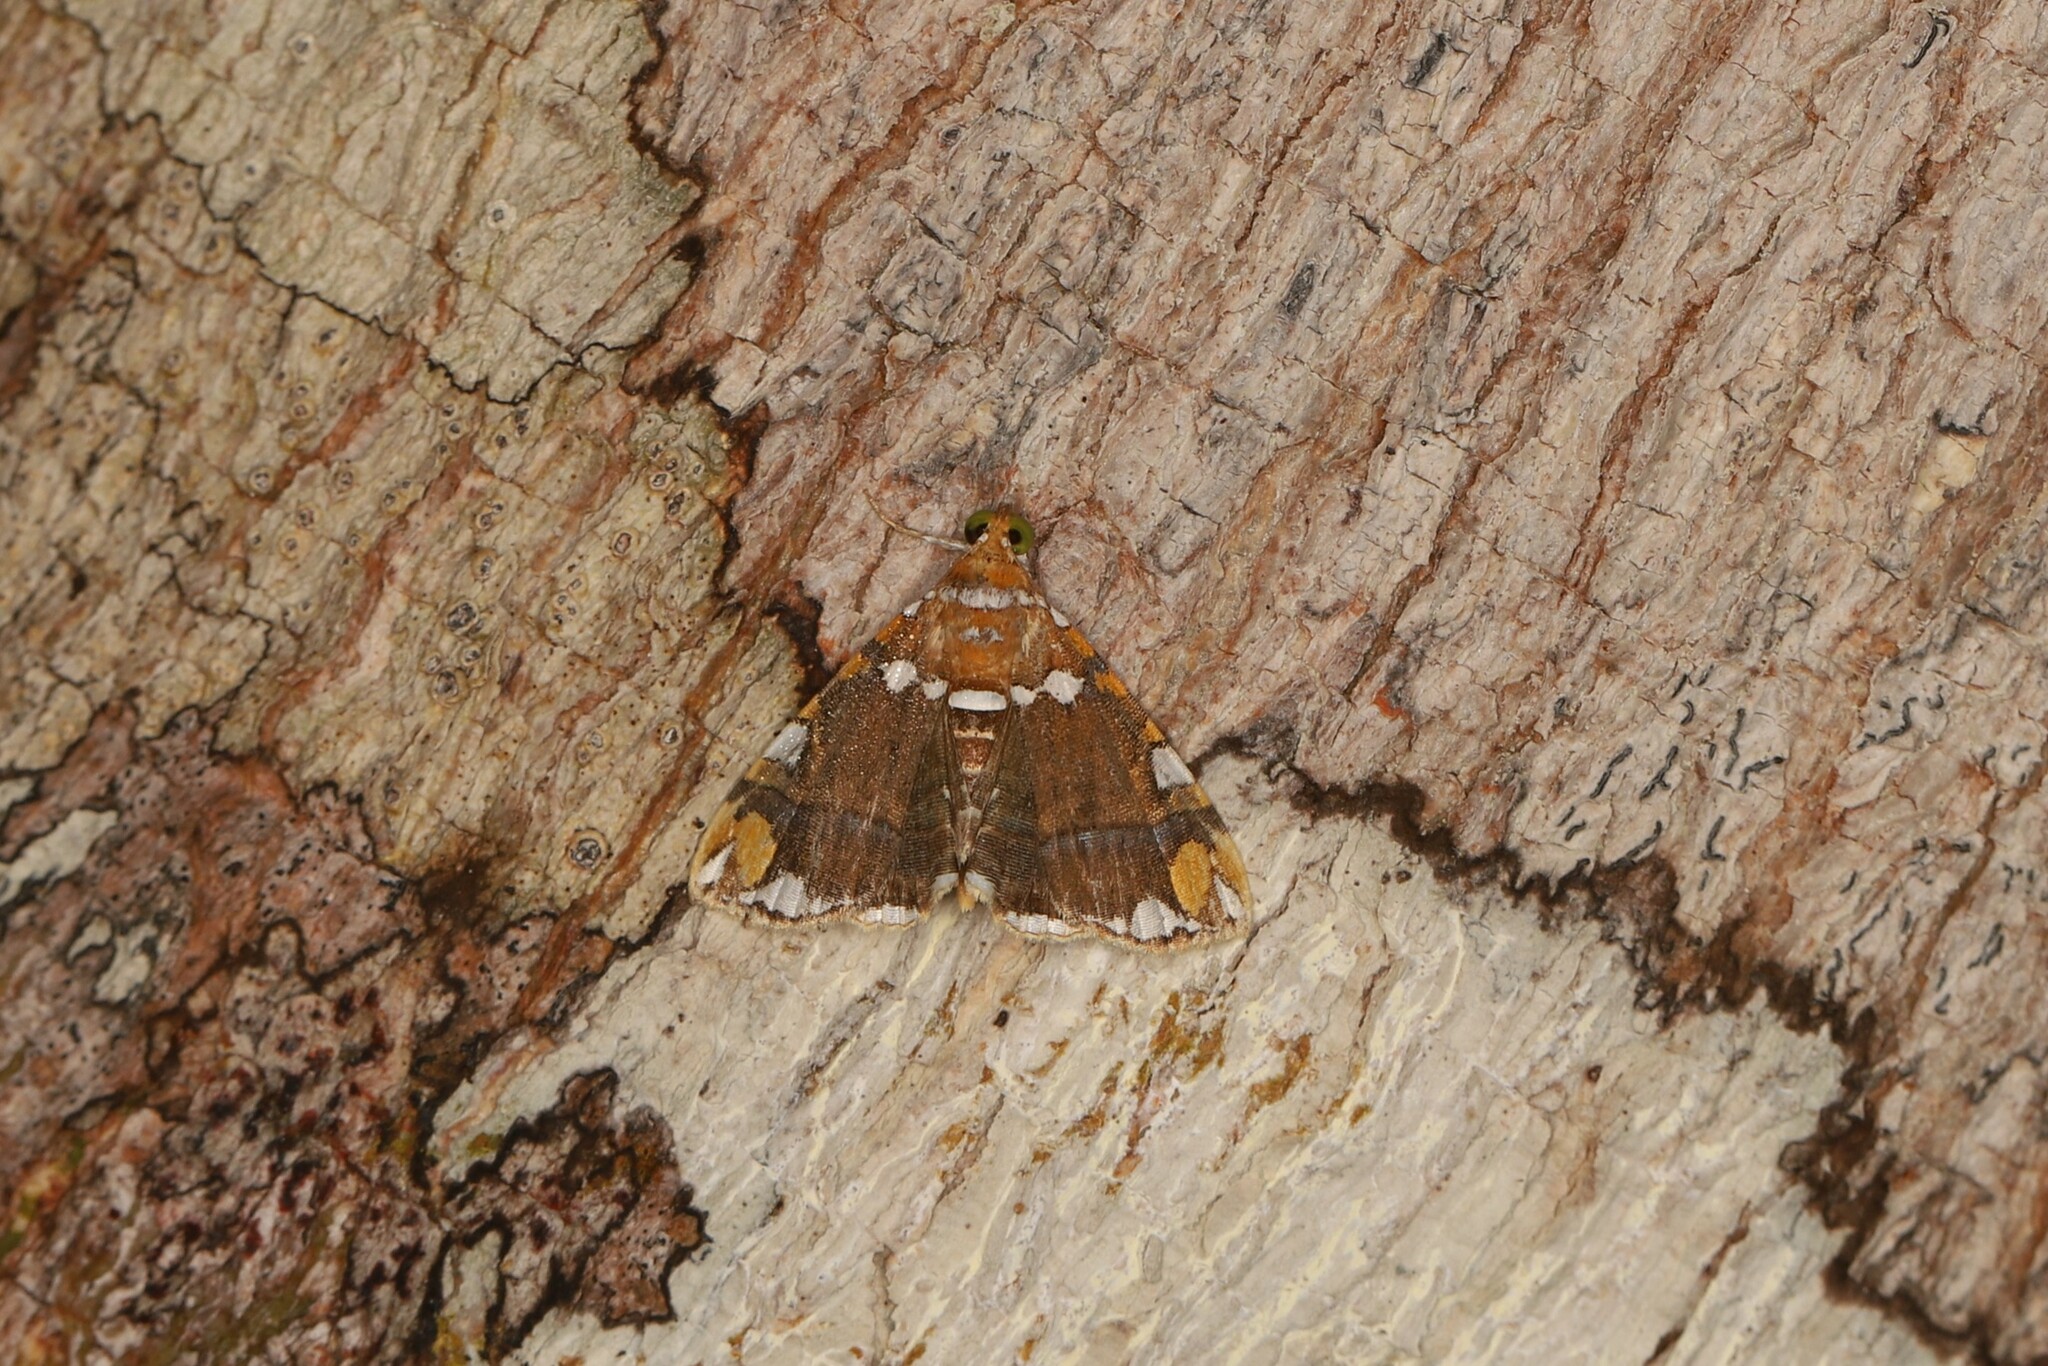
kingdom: Animalia
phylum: Arthropoda
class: Insecta
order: Lepidoptera
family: Erebidae
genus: Eulepidotis
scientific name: Eulepidotis ouocco
